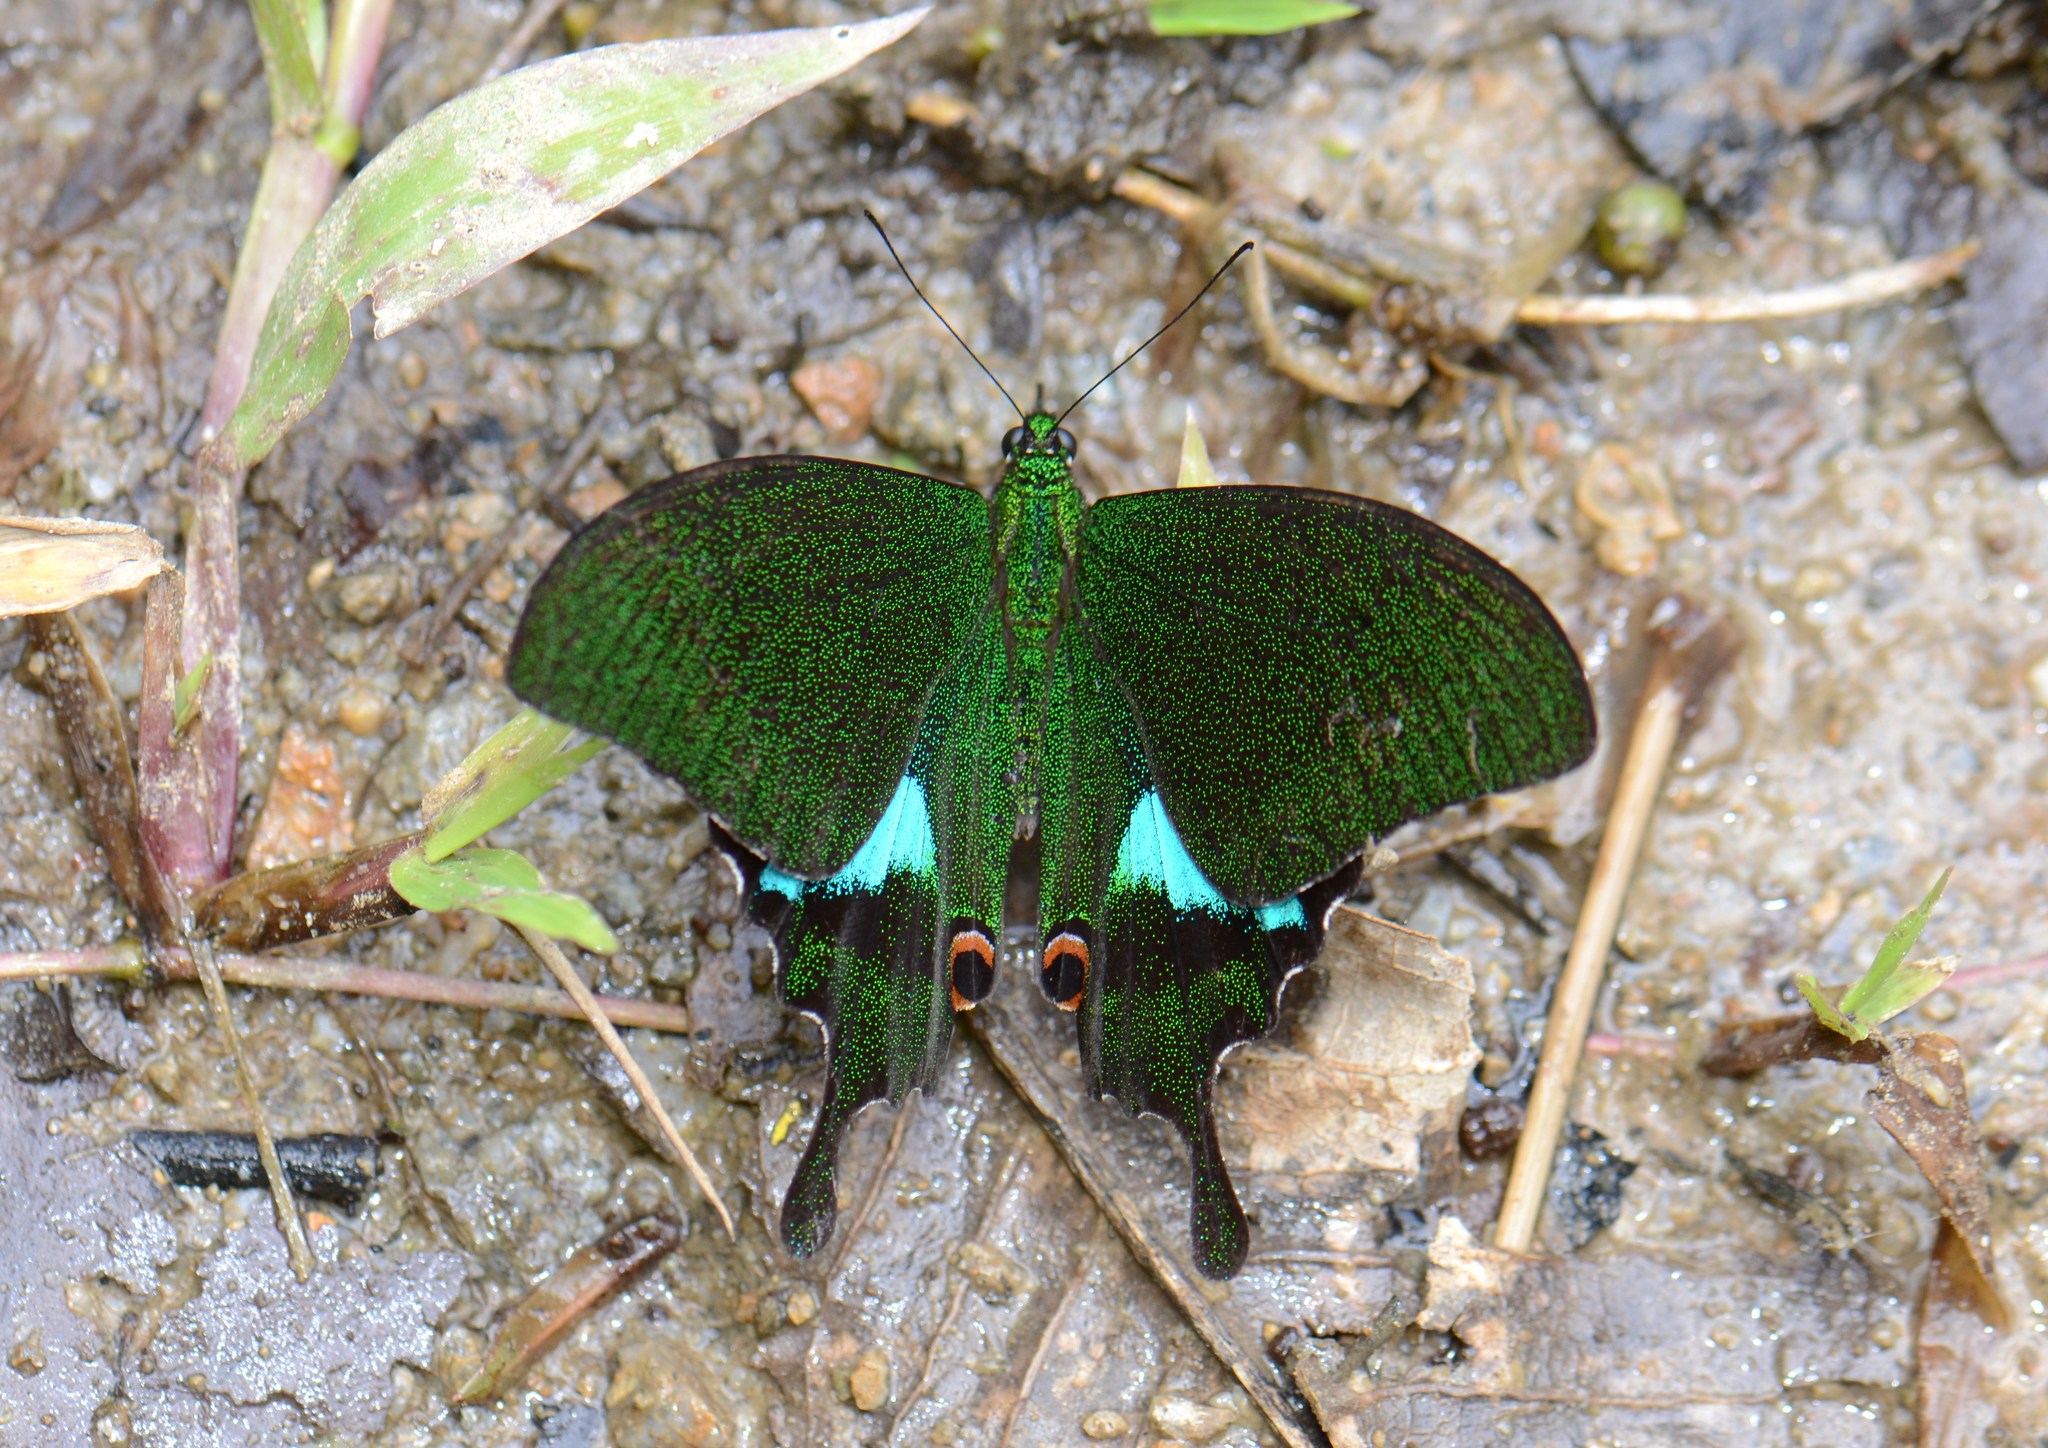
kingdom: Animalia
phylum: Arthropoda
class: Insecta
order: Lepidoptera
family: Papilionidae
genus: Papilio
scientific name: Papilio paris
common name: Paris peacock
